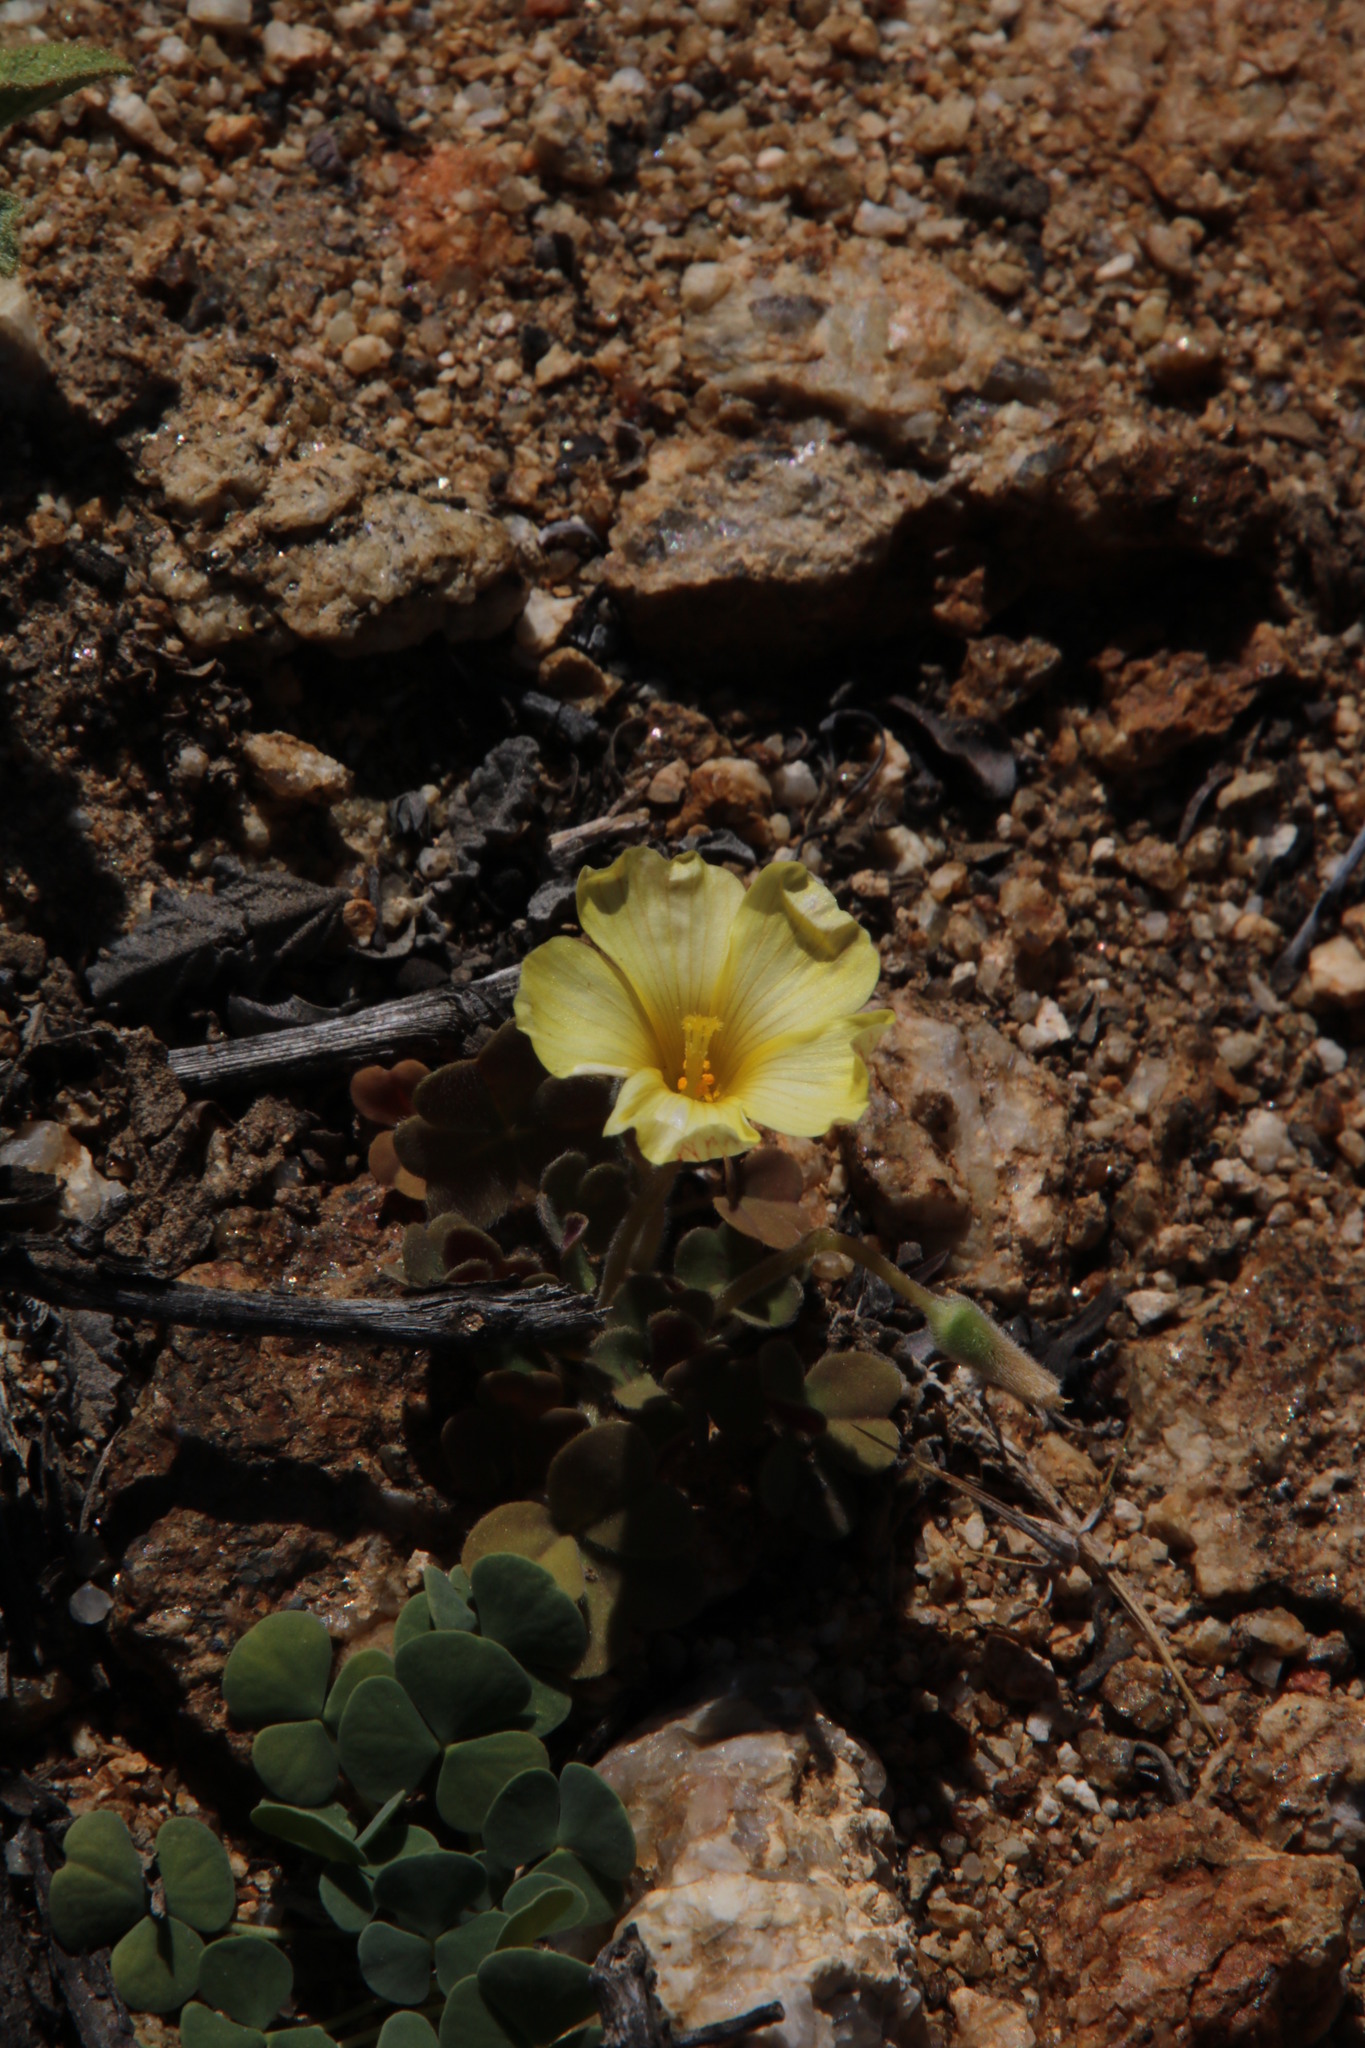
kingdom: Plantae
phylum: Tracheophyta
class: Magnoliopsida
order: Oxalidales
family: Oxalidaceae
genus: Oxalis
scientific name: Oxalis sonderiana
